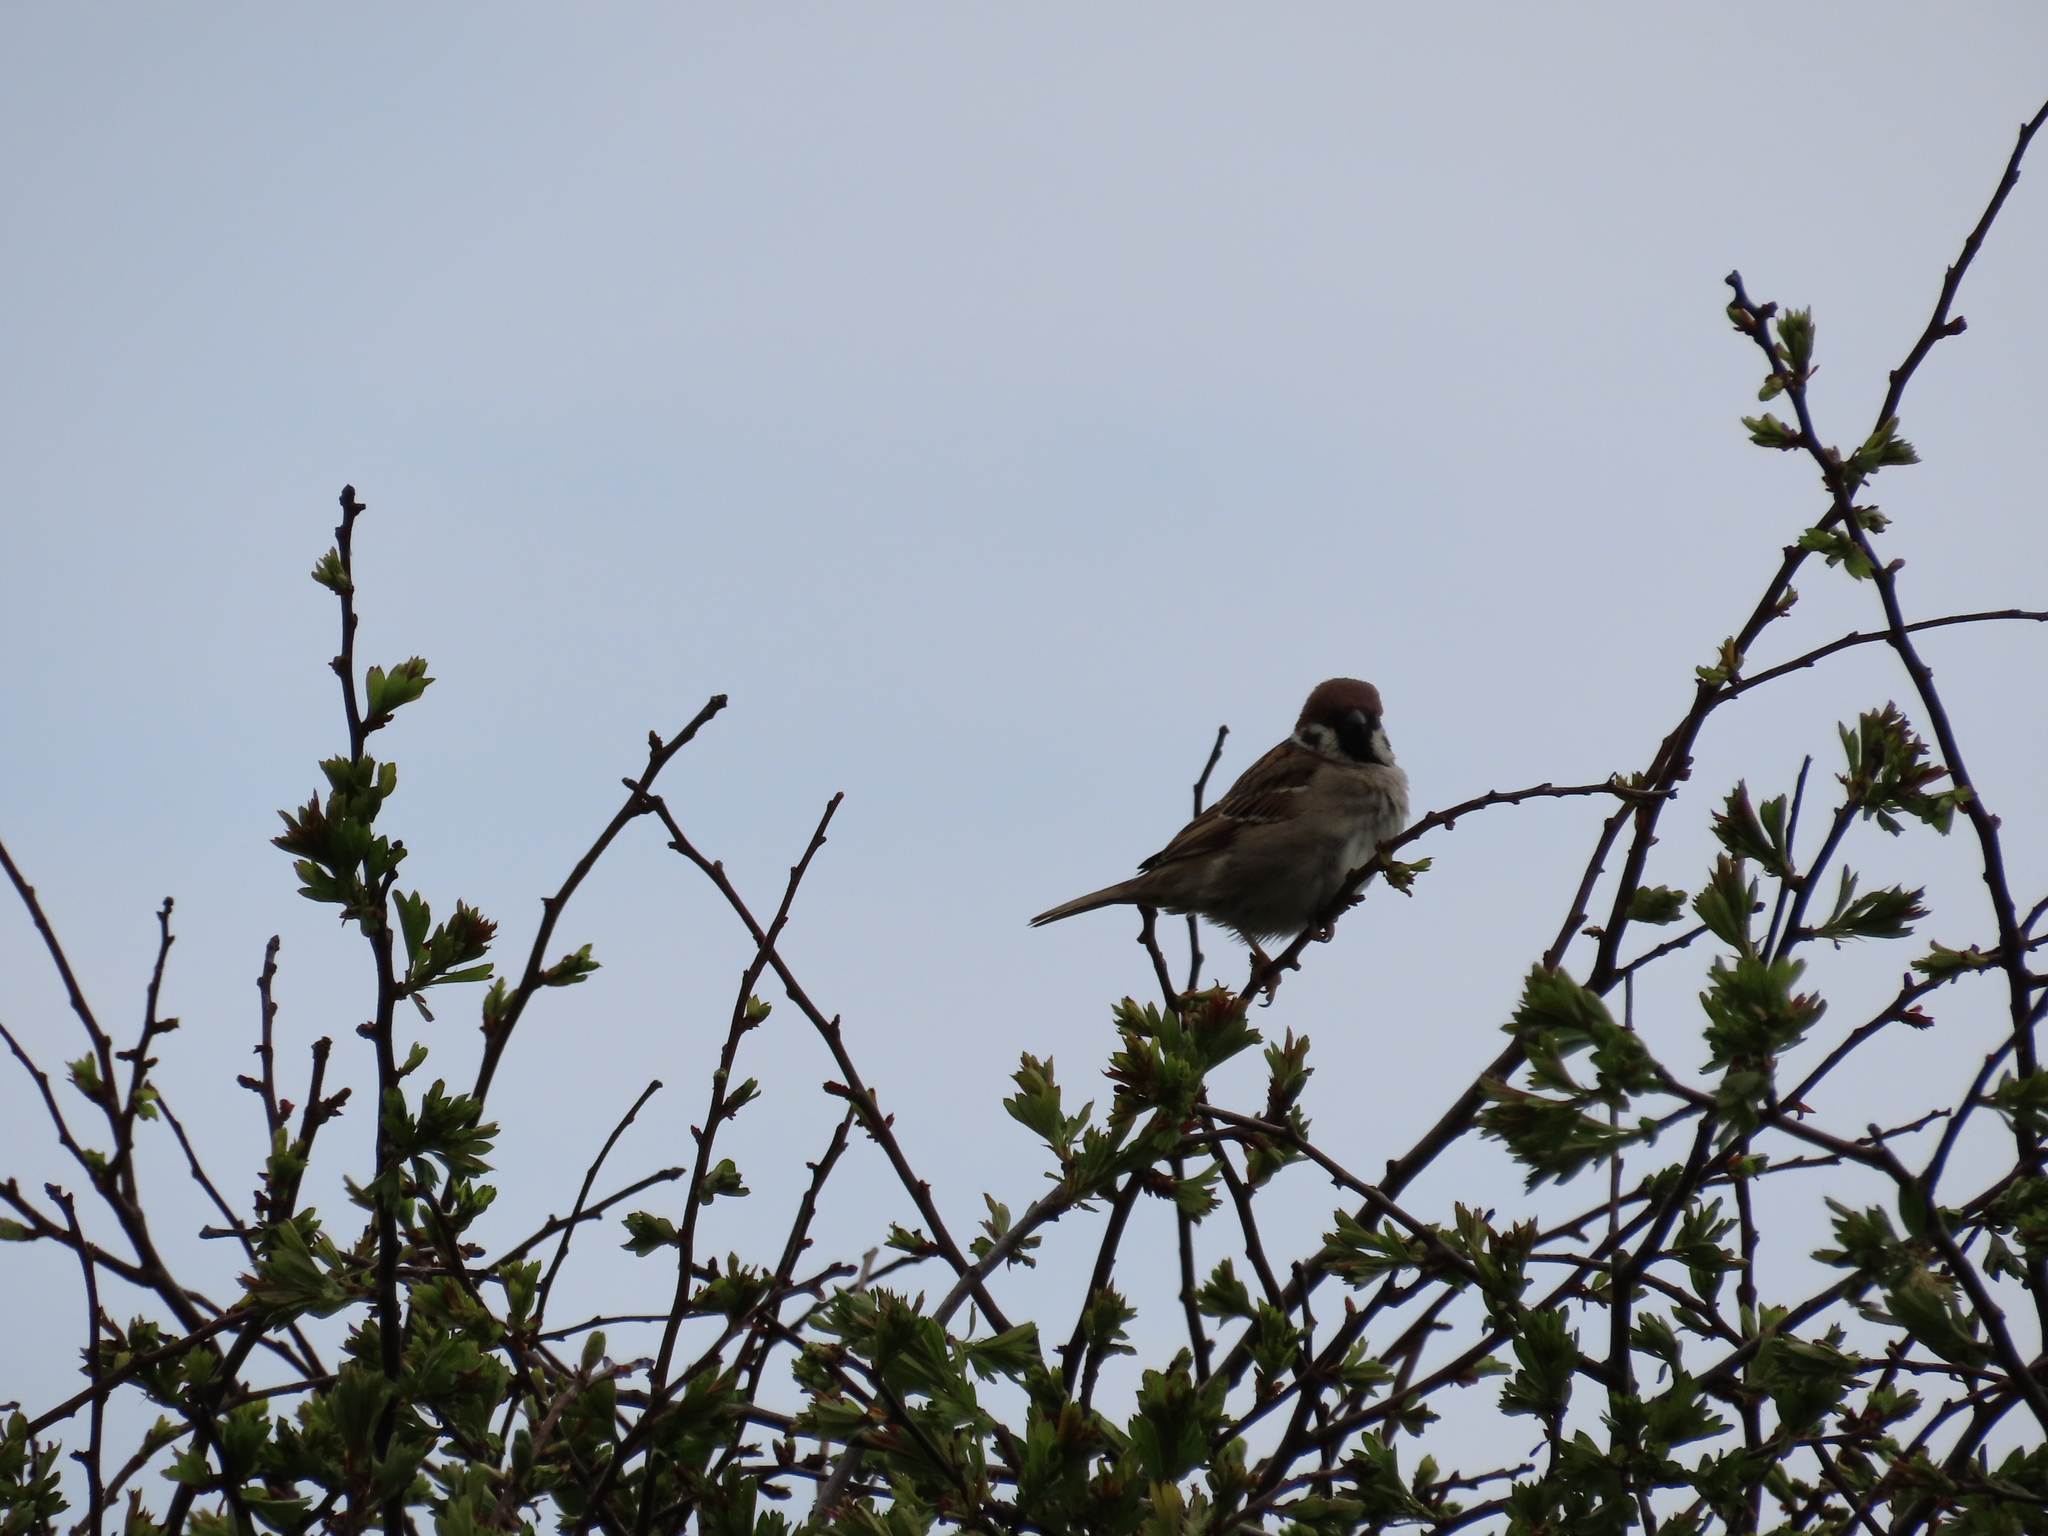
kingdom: Animalia
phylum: Chordata
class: Aves
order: Passeriformes
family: Passeridae
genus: Passer
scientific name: Passer montanus
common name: Eurasian tree sparrow
